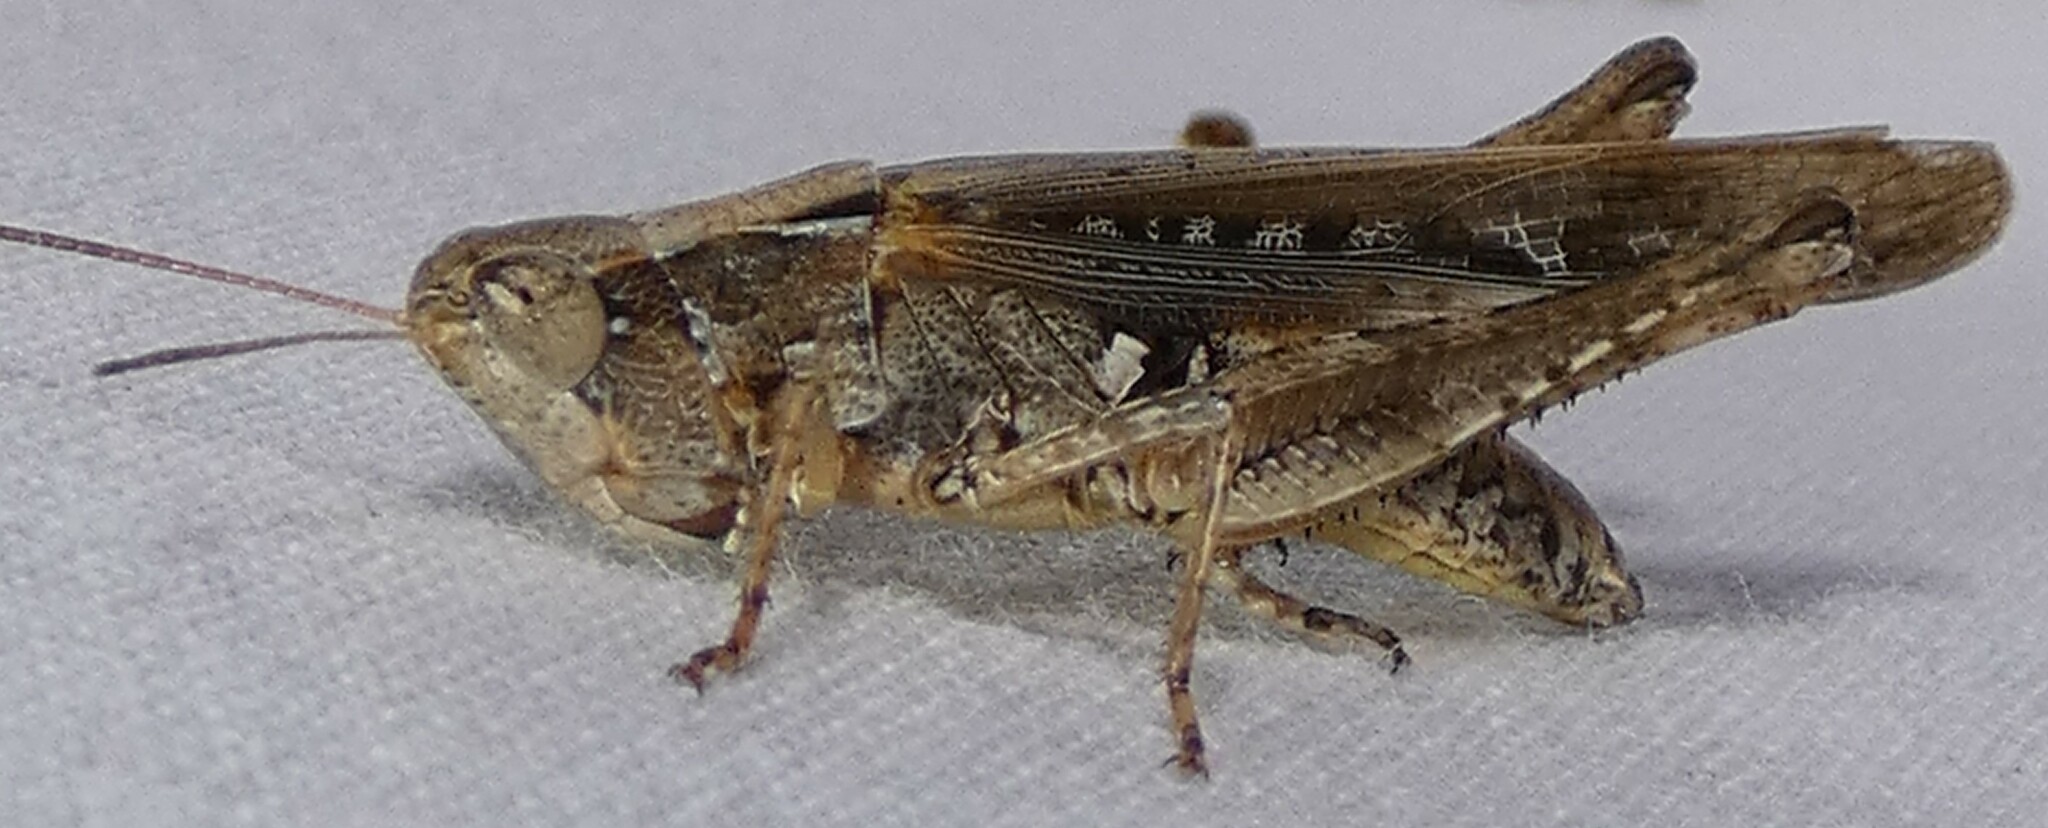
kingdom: Animalia
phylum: Arthropoda
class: Insecta
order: Orthoptera
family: Acrididae
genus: Orphulella
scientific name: Orphulella pelidna
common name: Spotted-wing grasshopper
